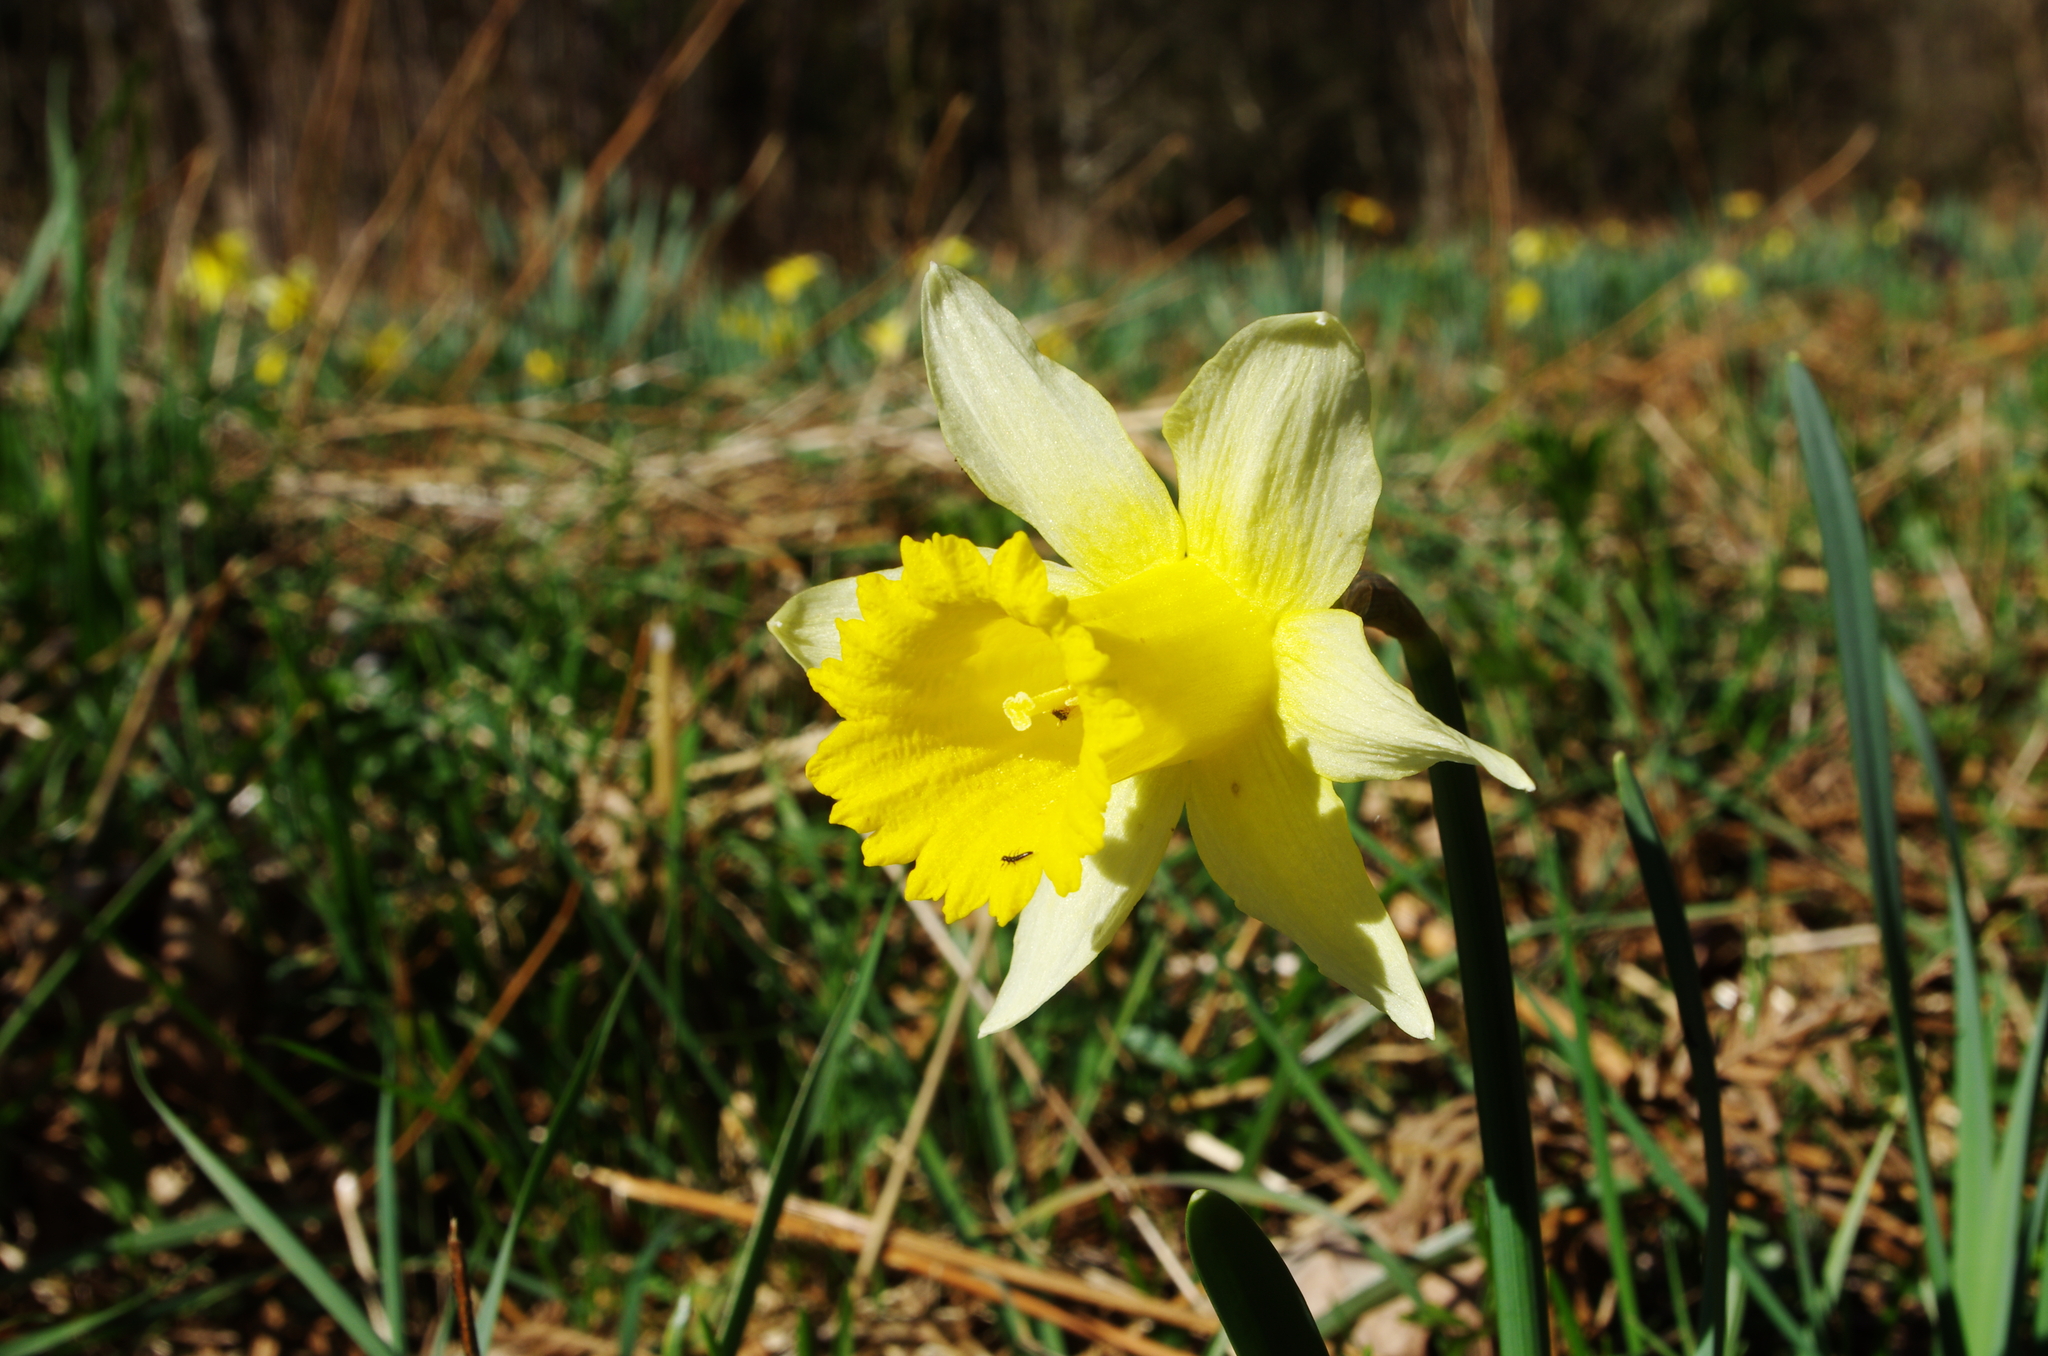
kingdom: Plantae
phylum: Tracheophyta
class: Liliopsida
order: Asparagales
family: Amaryllidaceae
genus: Narcissus
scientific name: Narcissus pseudonarcissus
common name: Daffodil
